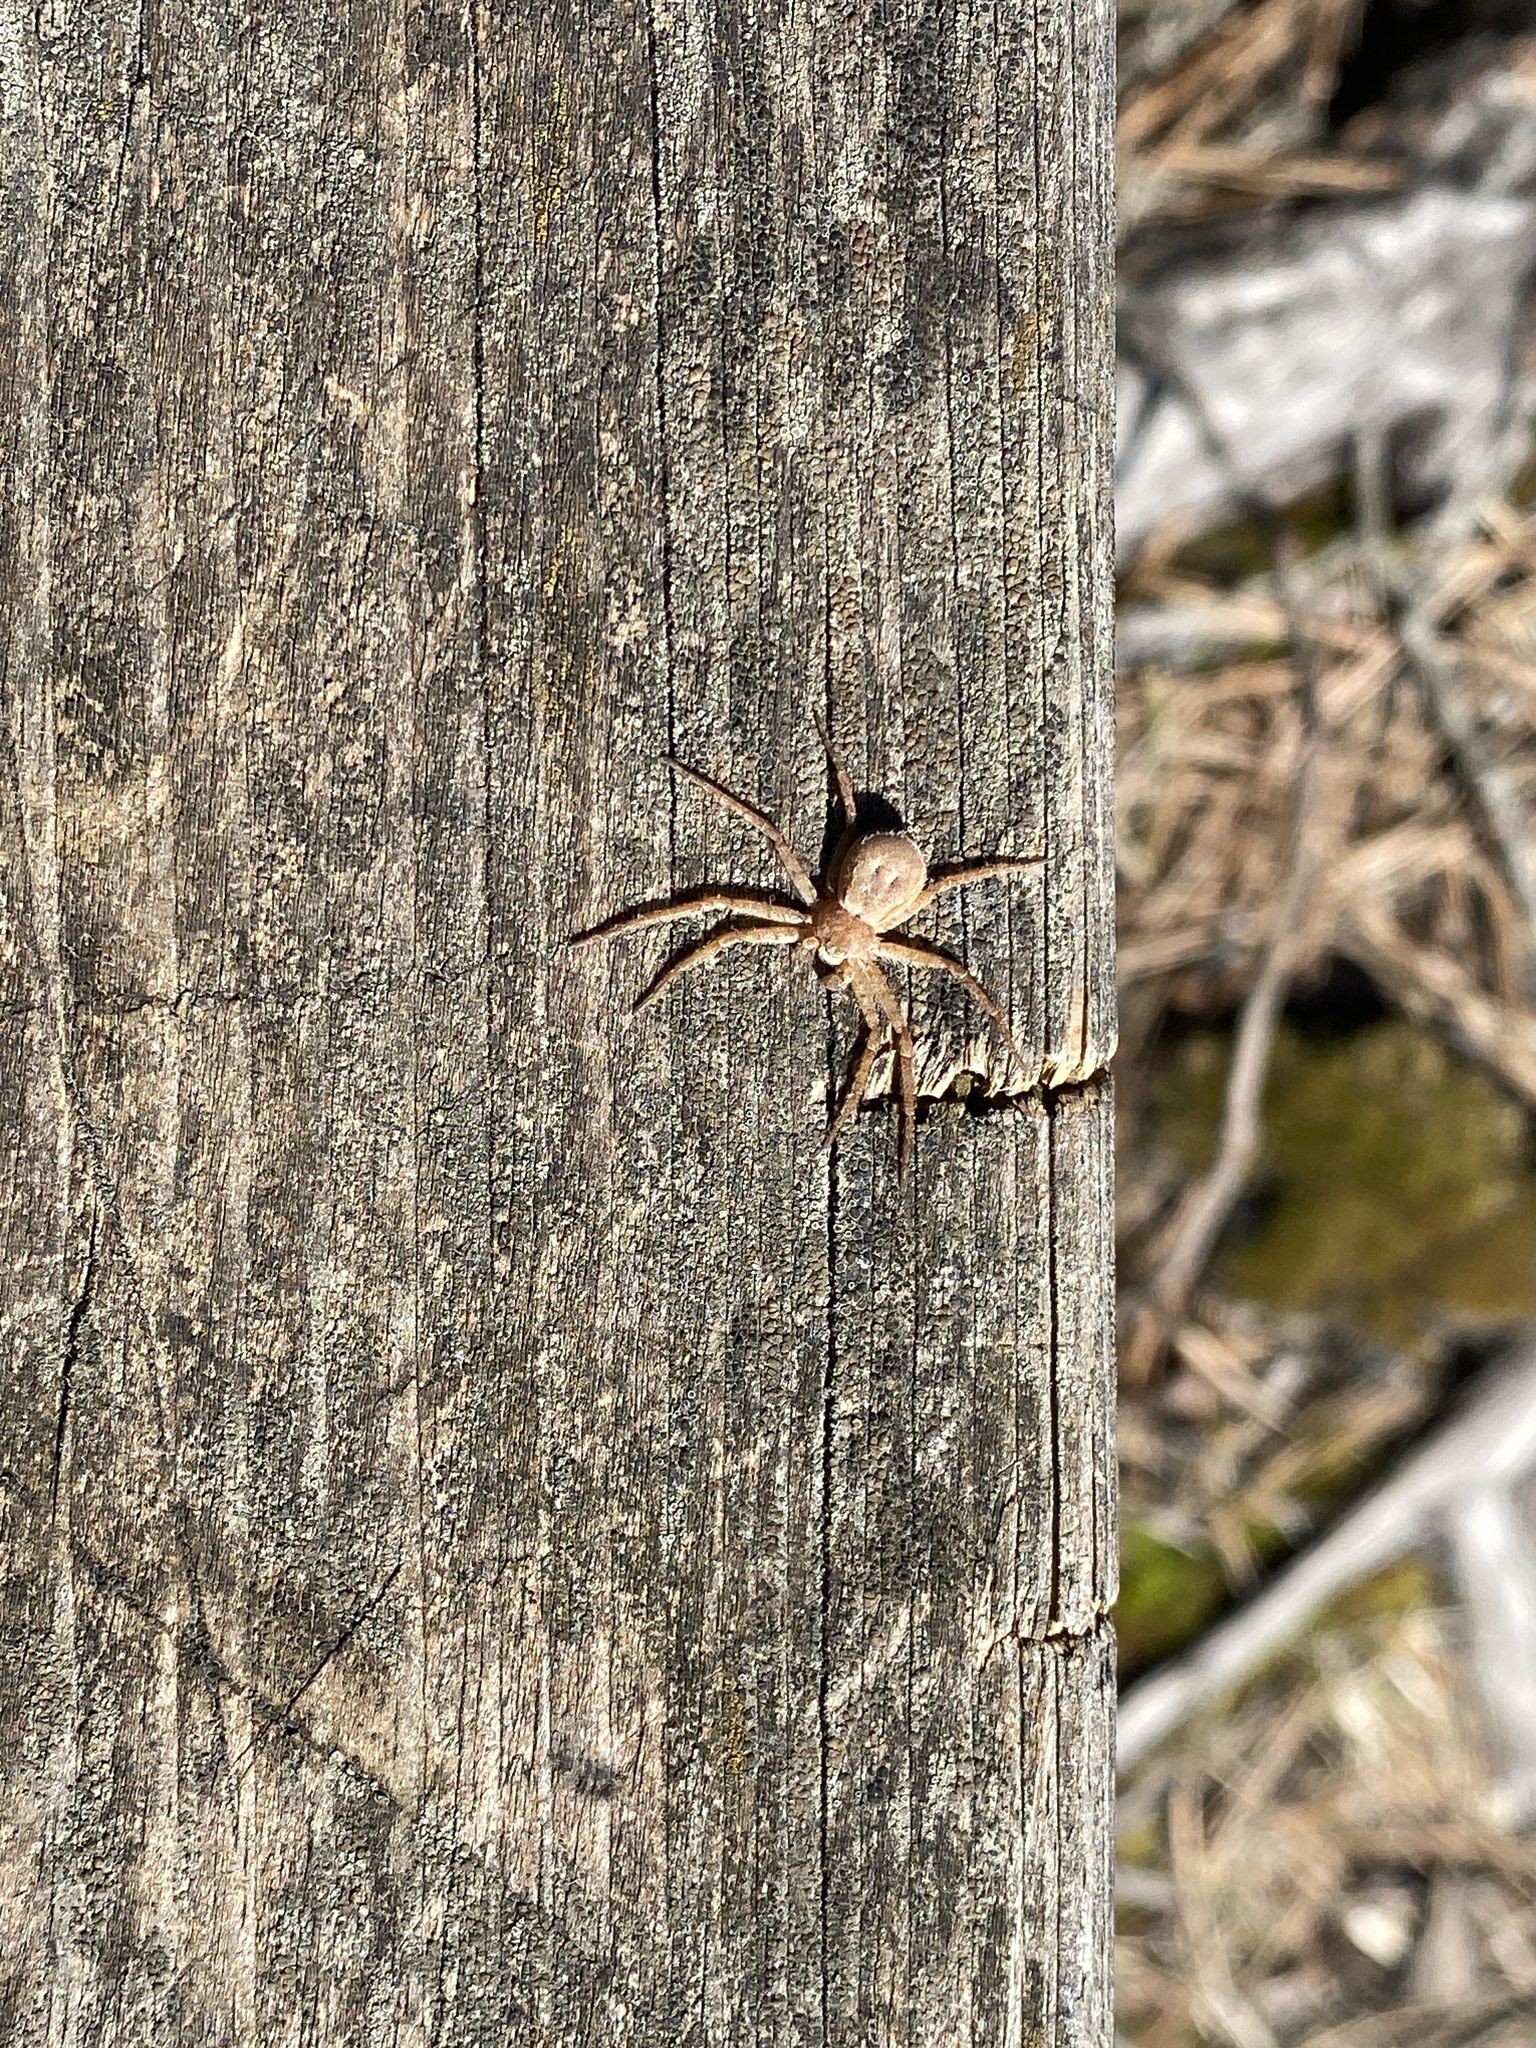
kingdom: Animalia
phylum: Arthropoda
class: Arachnida
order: Araneae
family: Philodromidae
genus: Philodromus
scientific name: Philodromus fuscomarginatus
